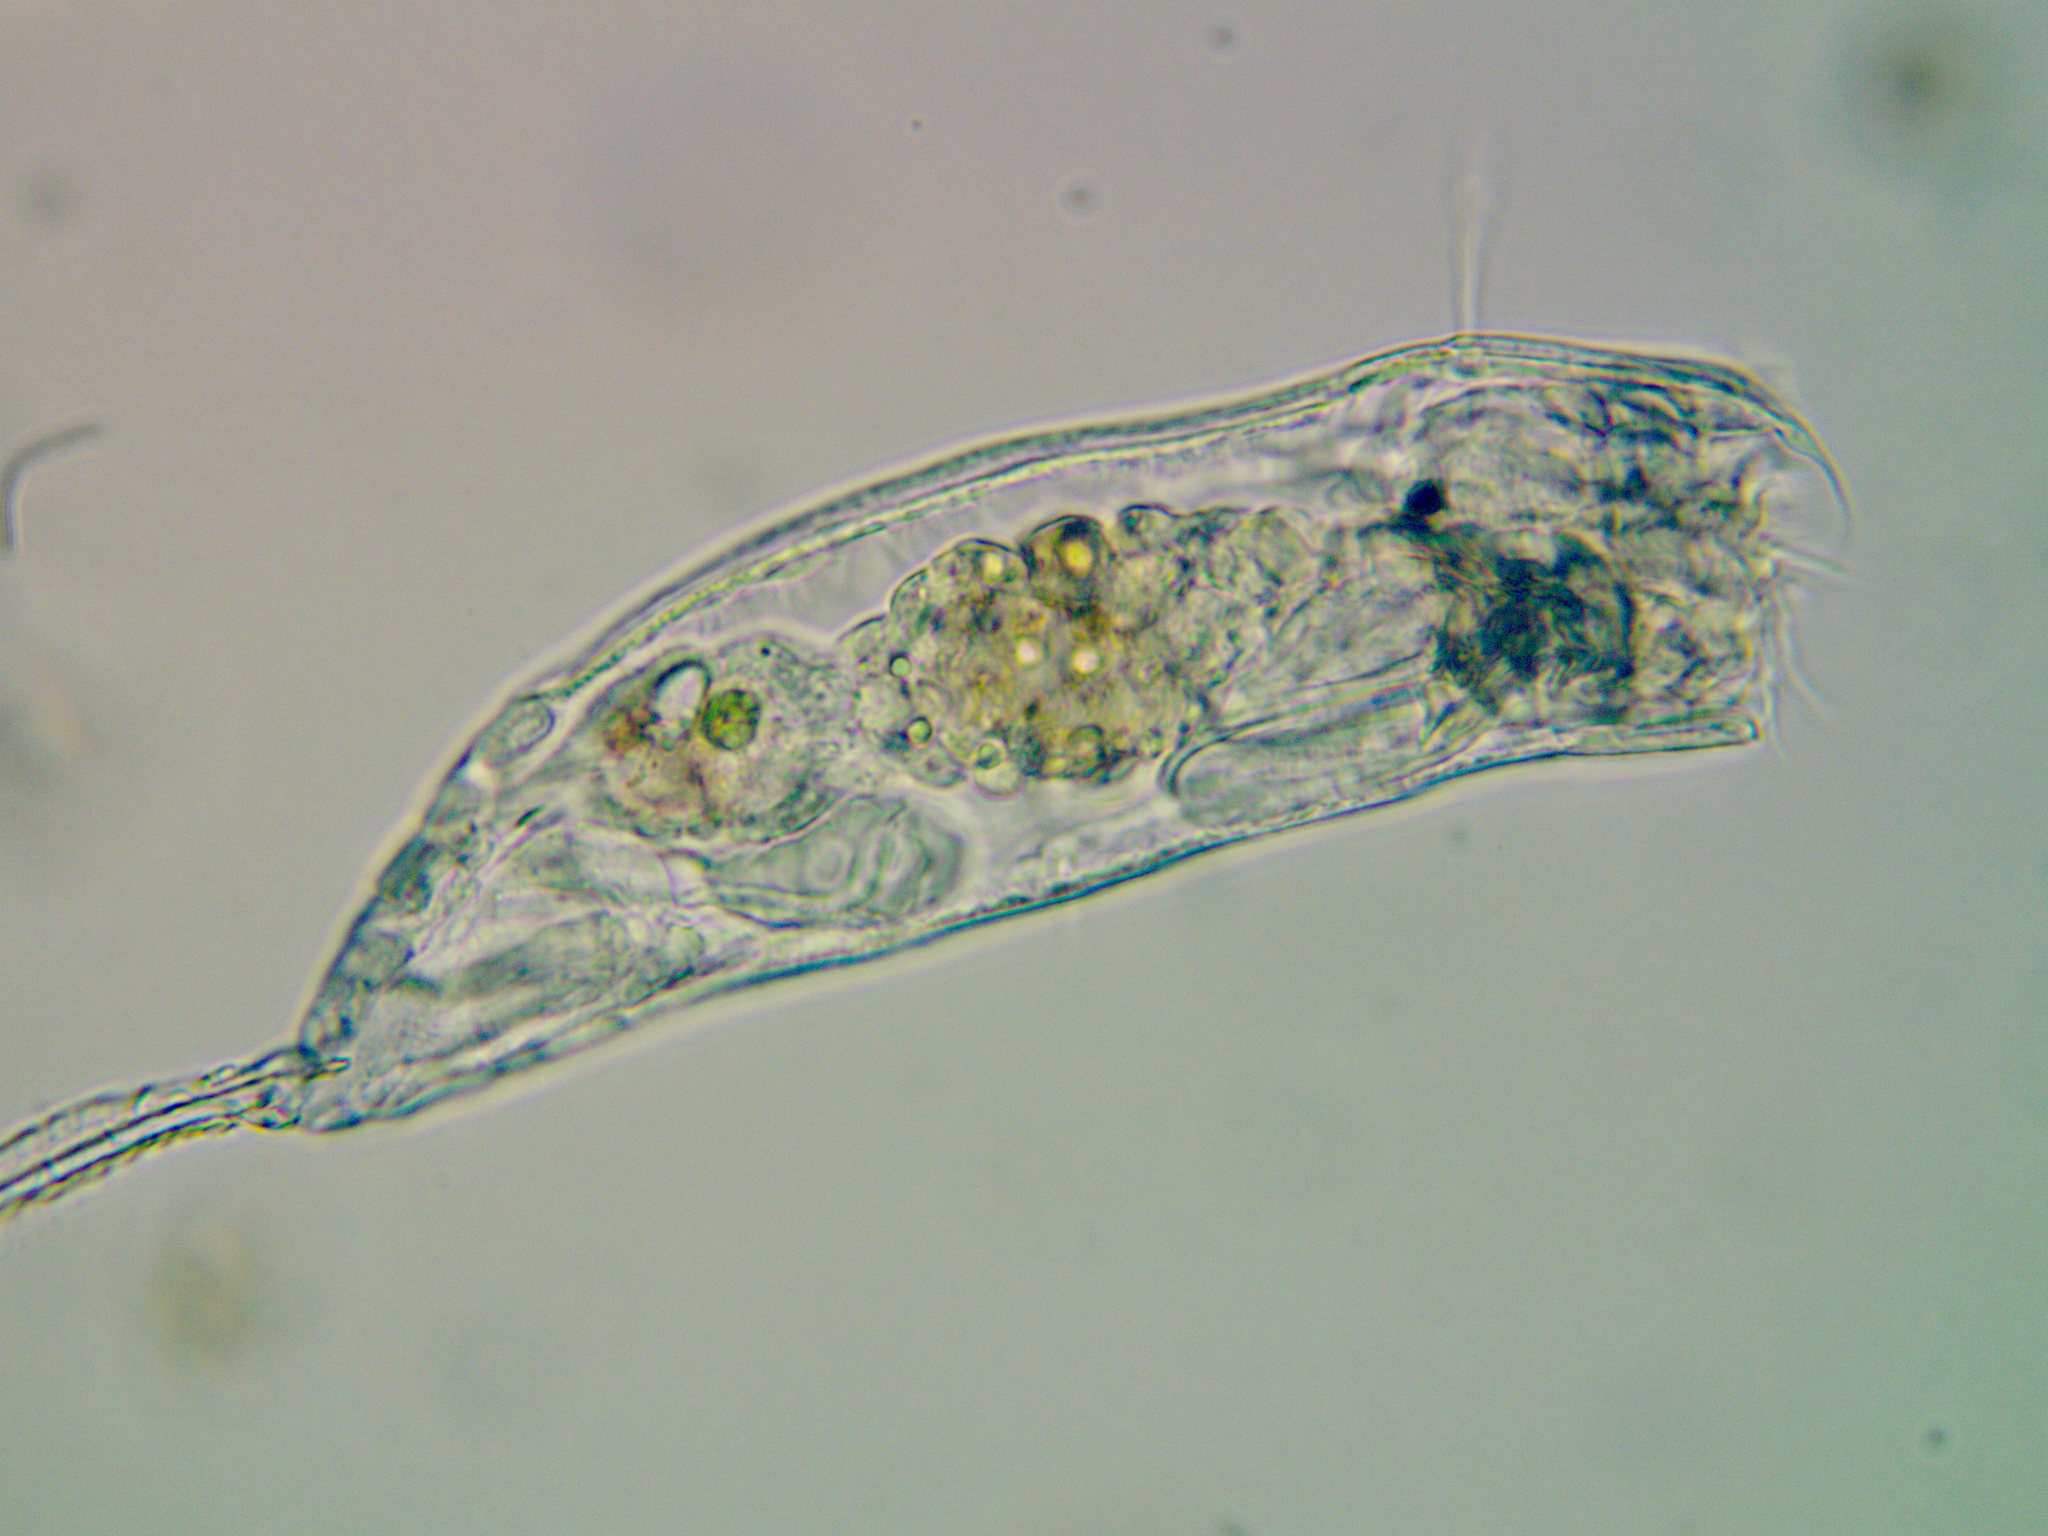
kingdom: Animalia
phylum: Rotifera
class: Eurotatoria
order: Ploima
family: Trichocercidae
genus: Trichocerca
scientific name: Trichocerca cylindrica
